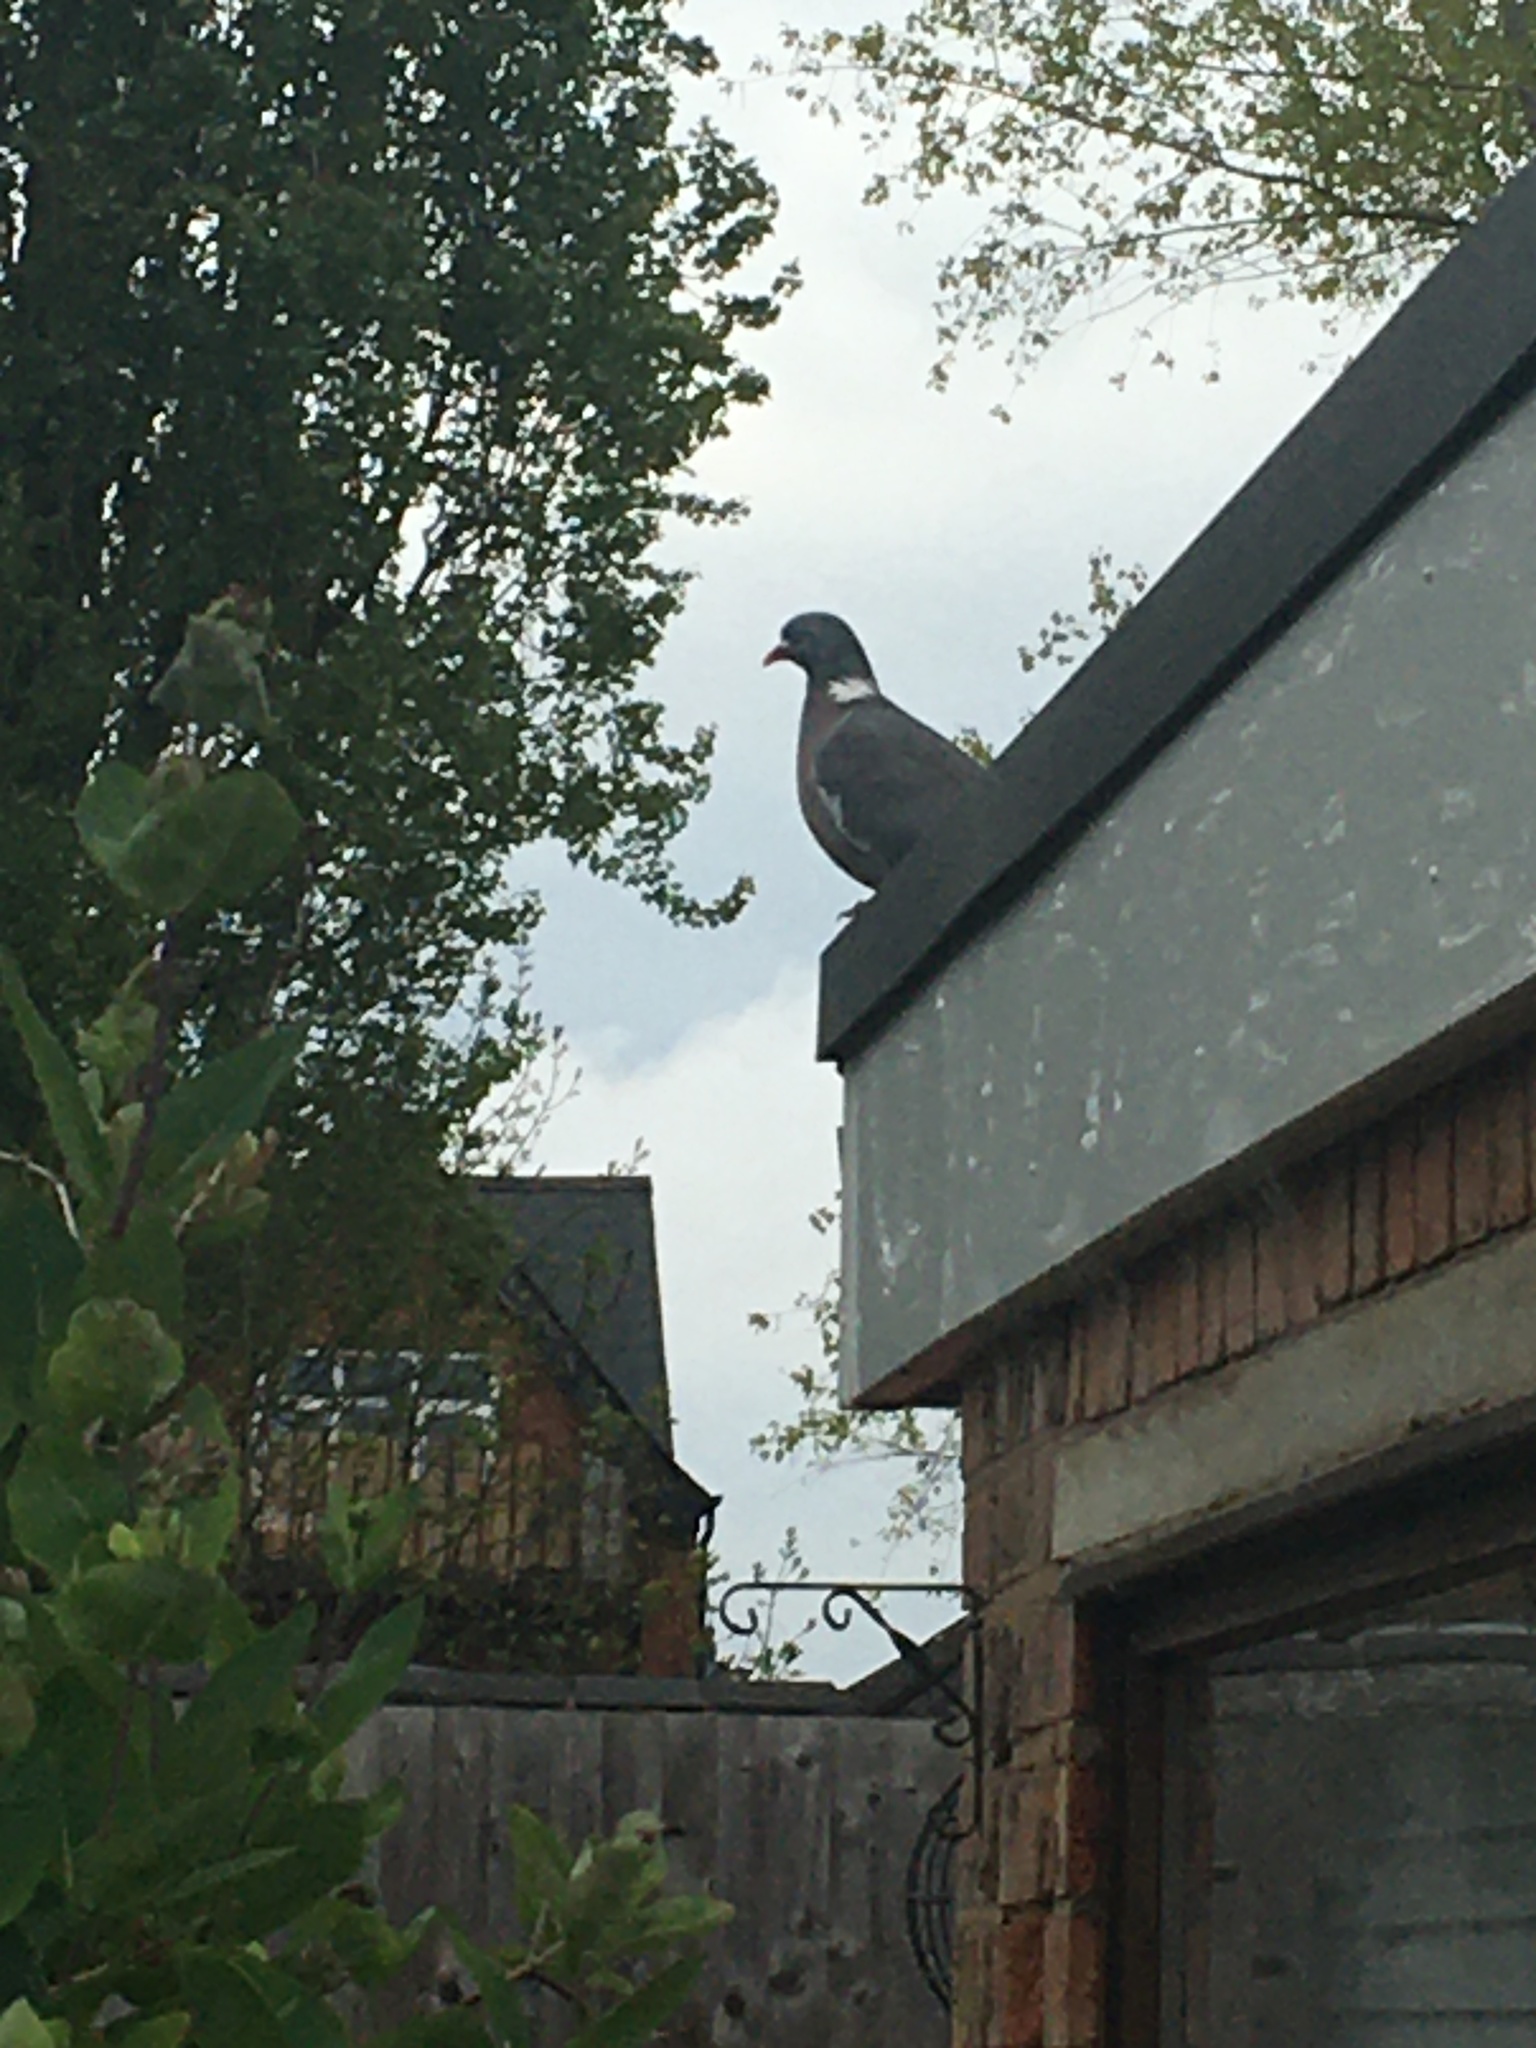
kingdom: Animalia
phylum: Chordata
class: Aves
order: Columbiformes
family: Columbidae
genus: Columba
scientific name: Columba palumbus
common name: Common wood pigeon
